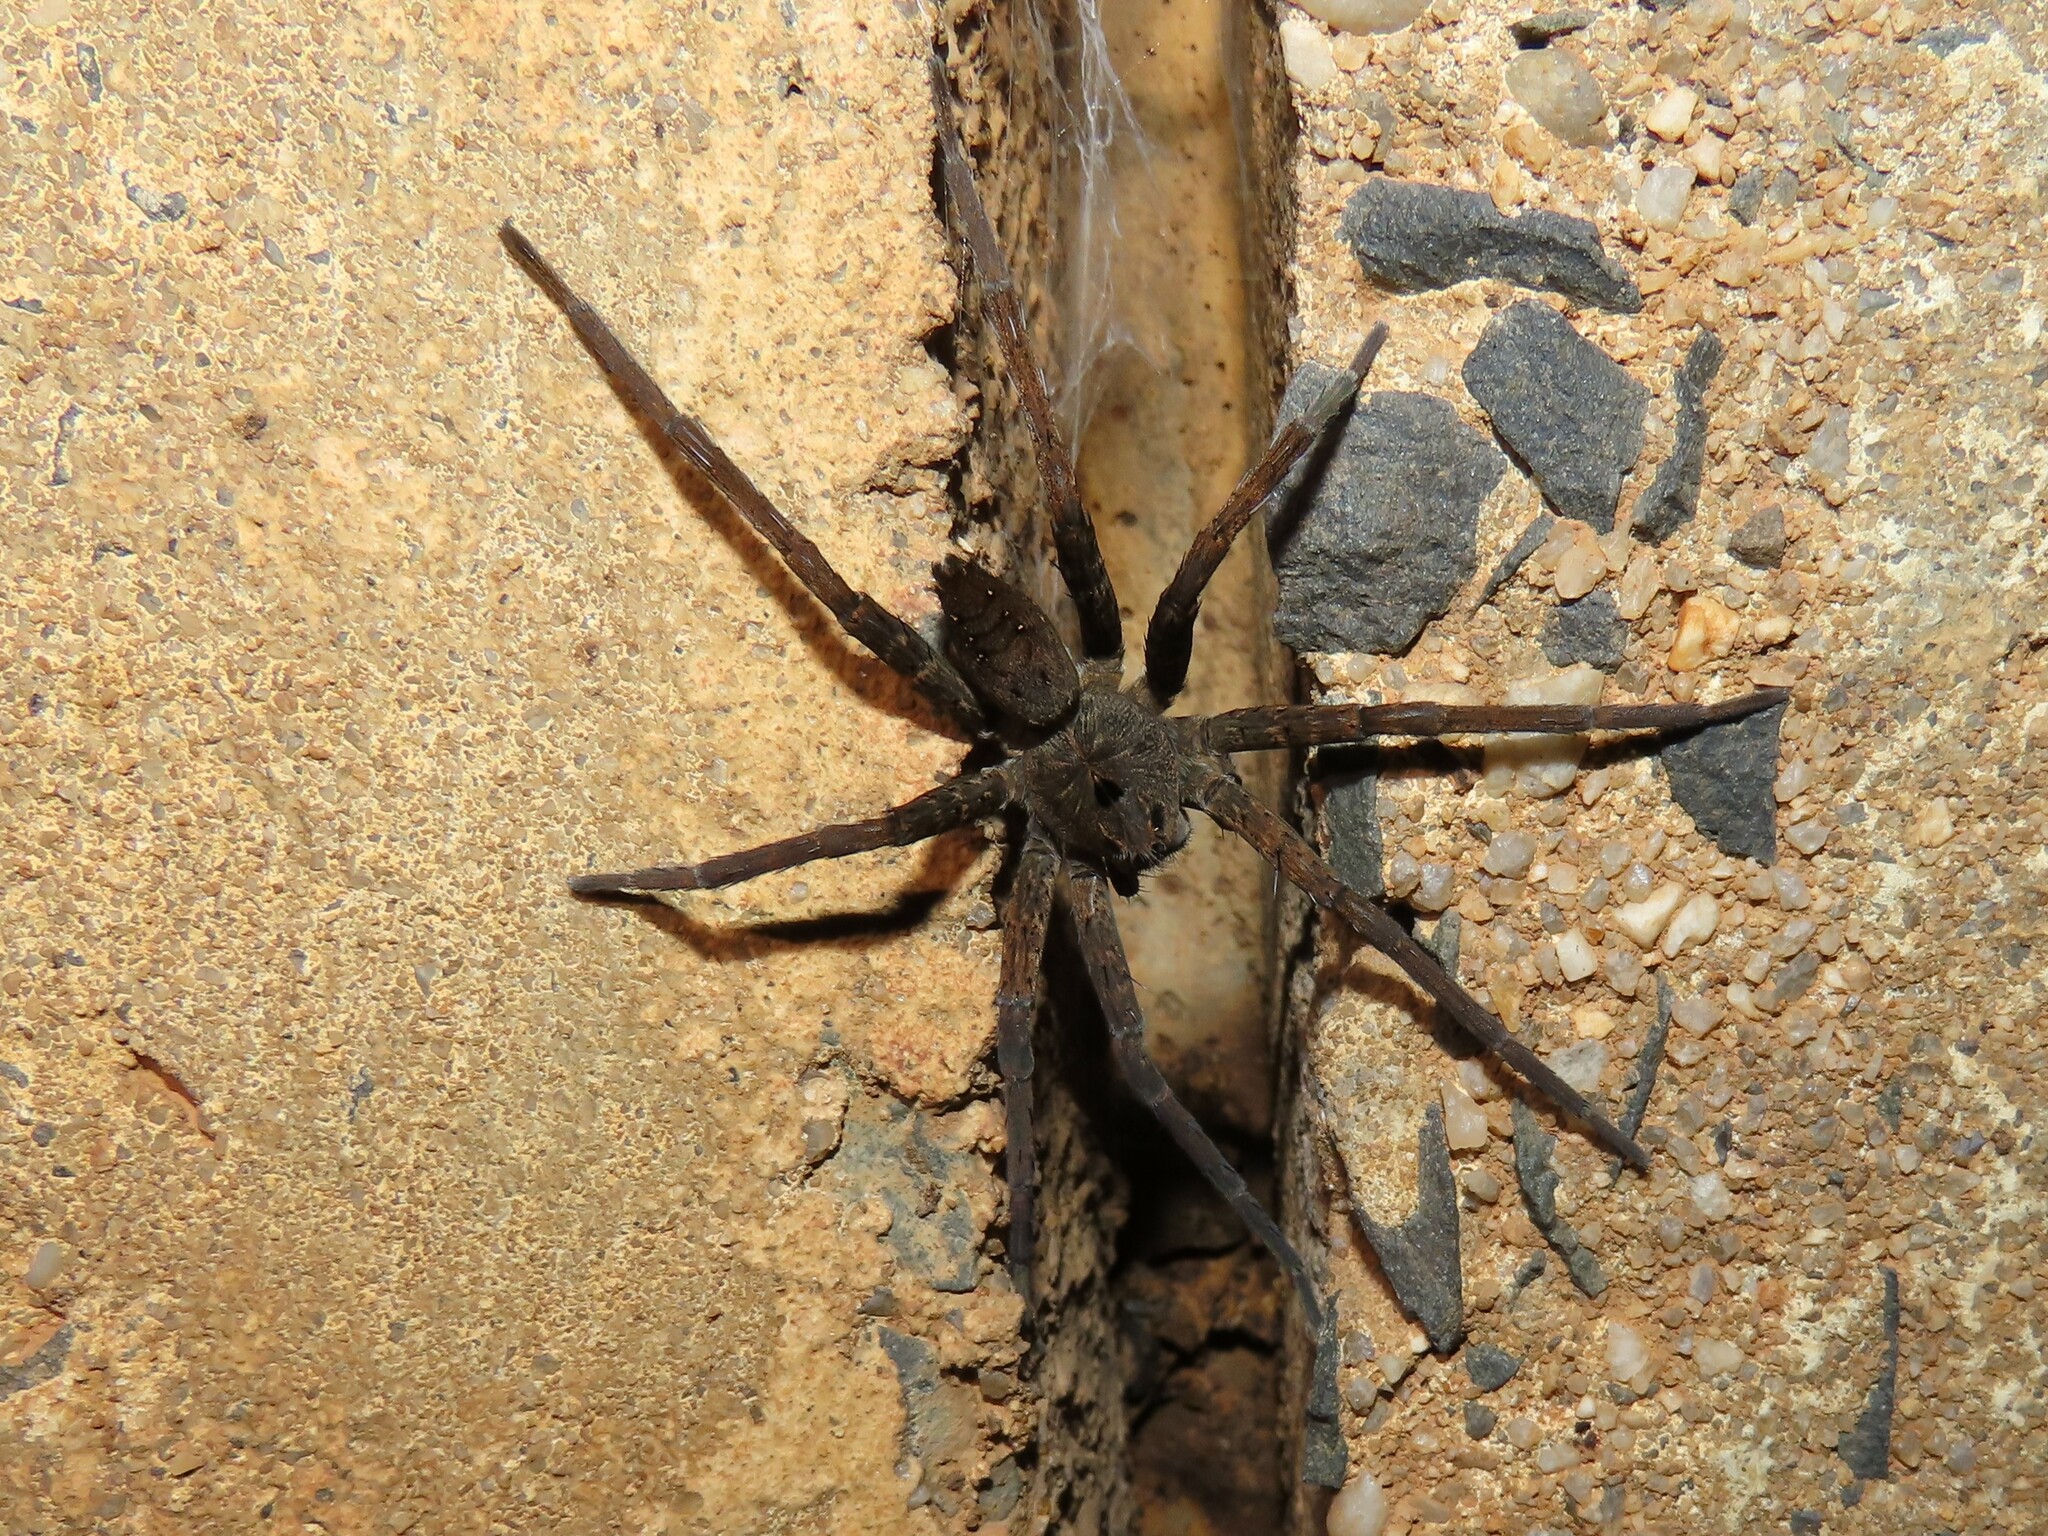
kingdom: Animalia
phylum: Arthropoda
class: Arachnida
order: Araneae
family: Pisauridae
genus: Dolomedes
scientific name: Dolomedes vittatus
